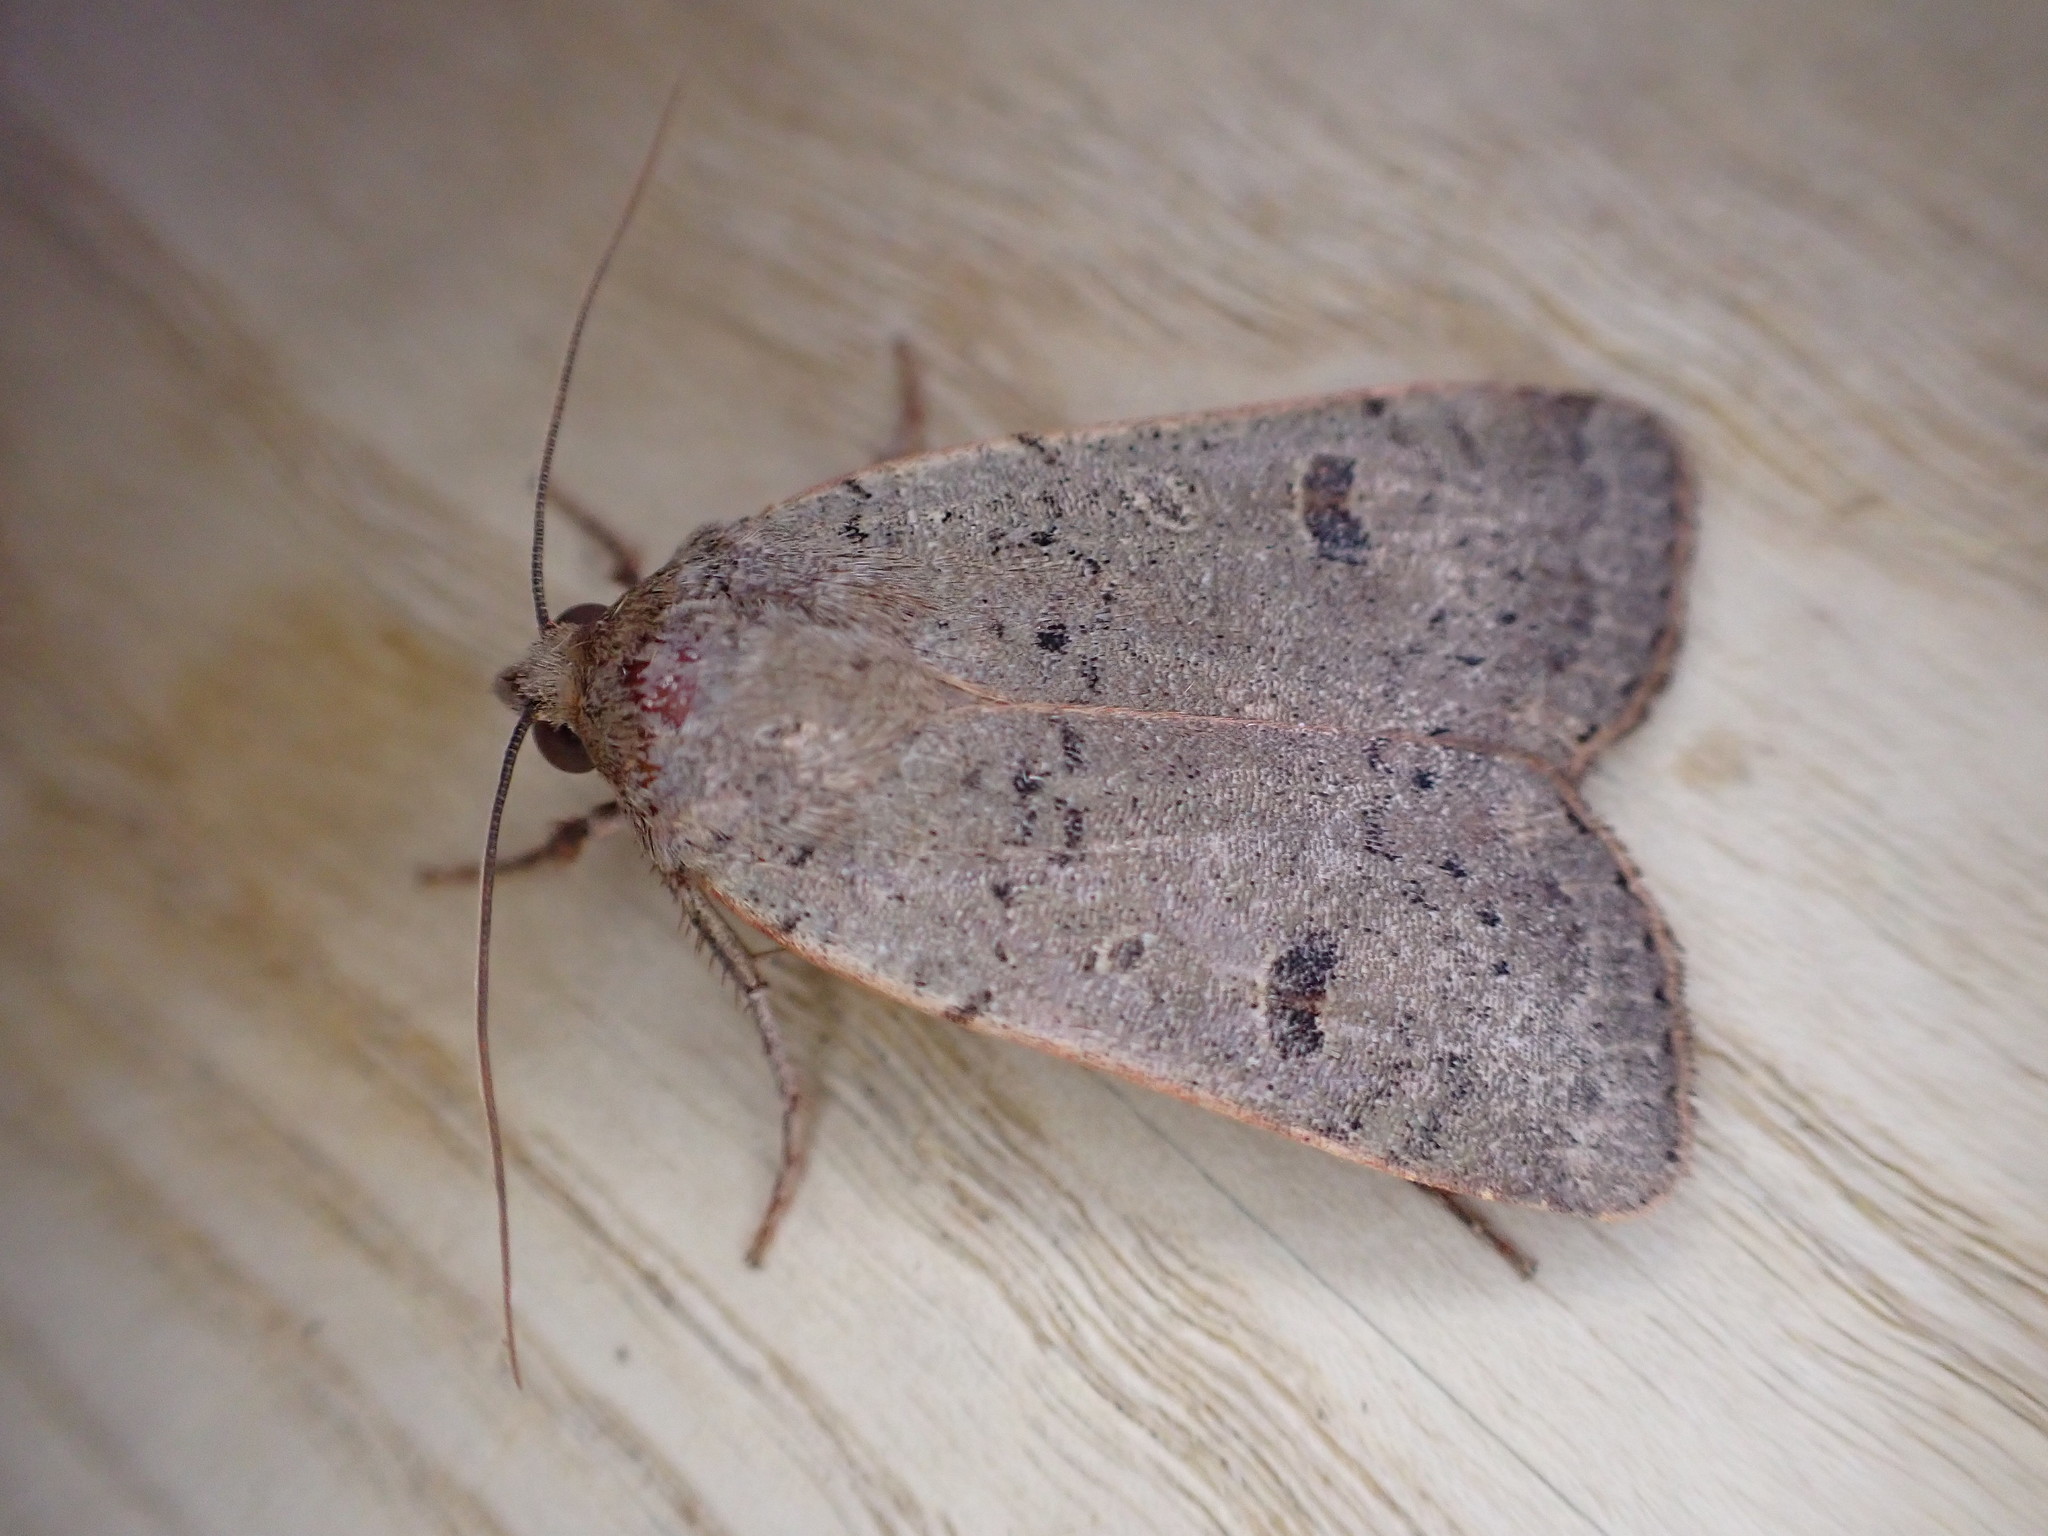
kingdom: Animalia
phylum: Arthropoda
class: Insecta
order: Lepidoptera
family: Noctuidae
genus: Noctua
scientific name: Noctua comes
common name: Lesser yellow underwing
